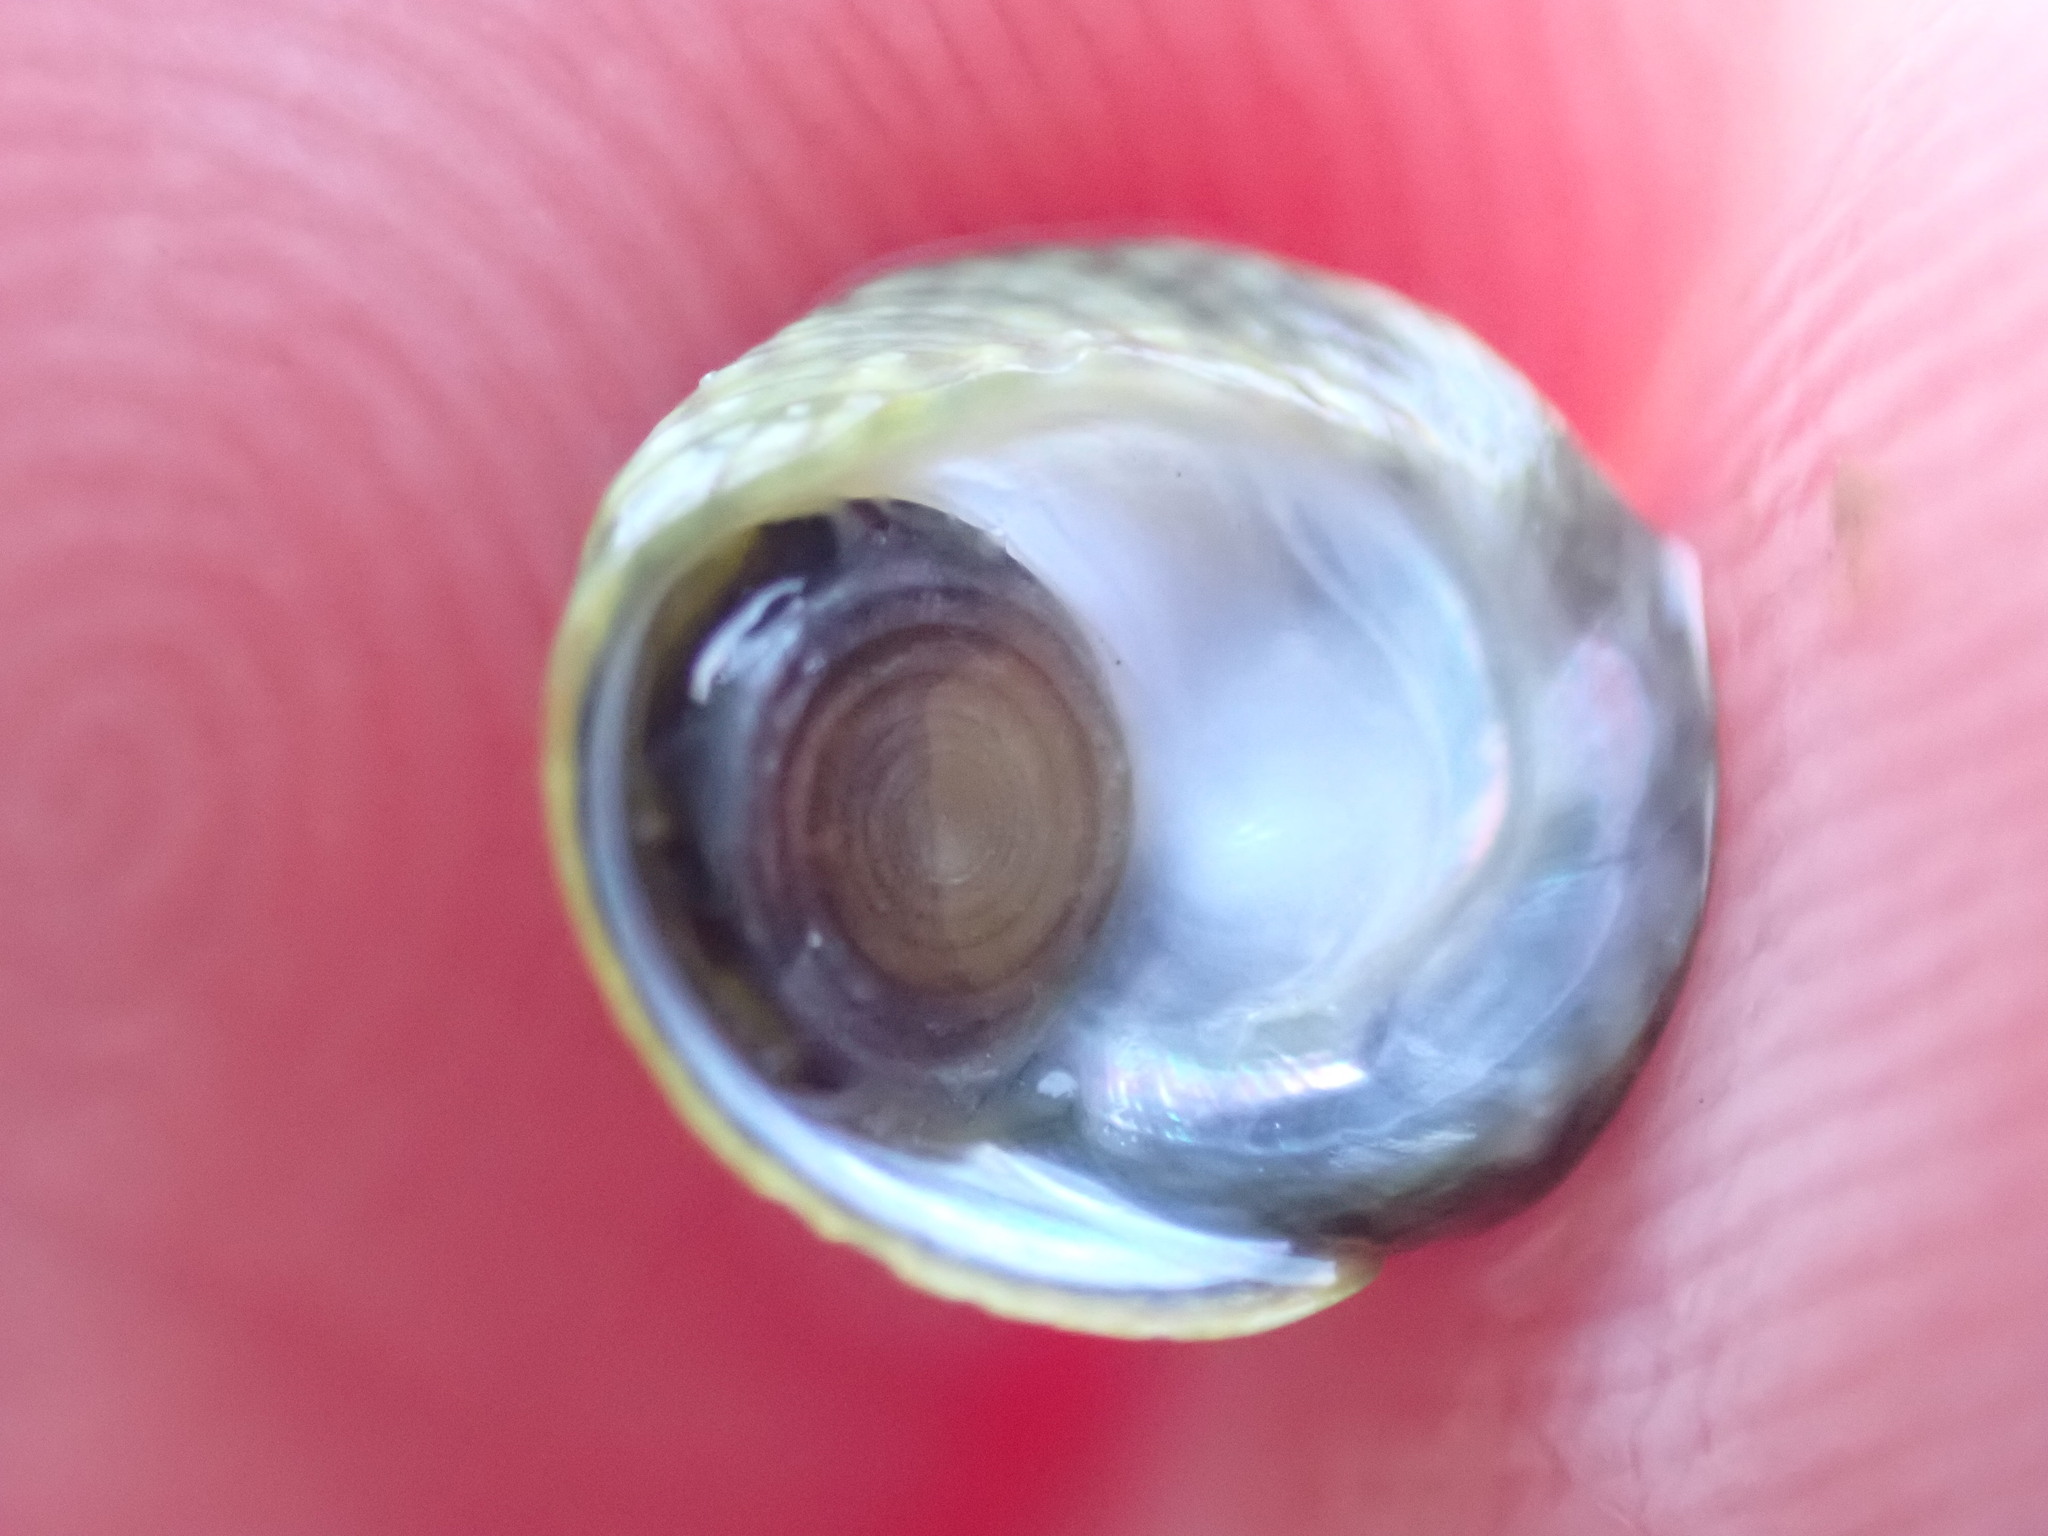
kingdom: Animalia
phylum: Mollusca
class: Gastropoda
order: Trochida
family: Trochidae
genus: Diloma
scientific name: Diloma coracinum
